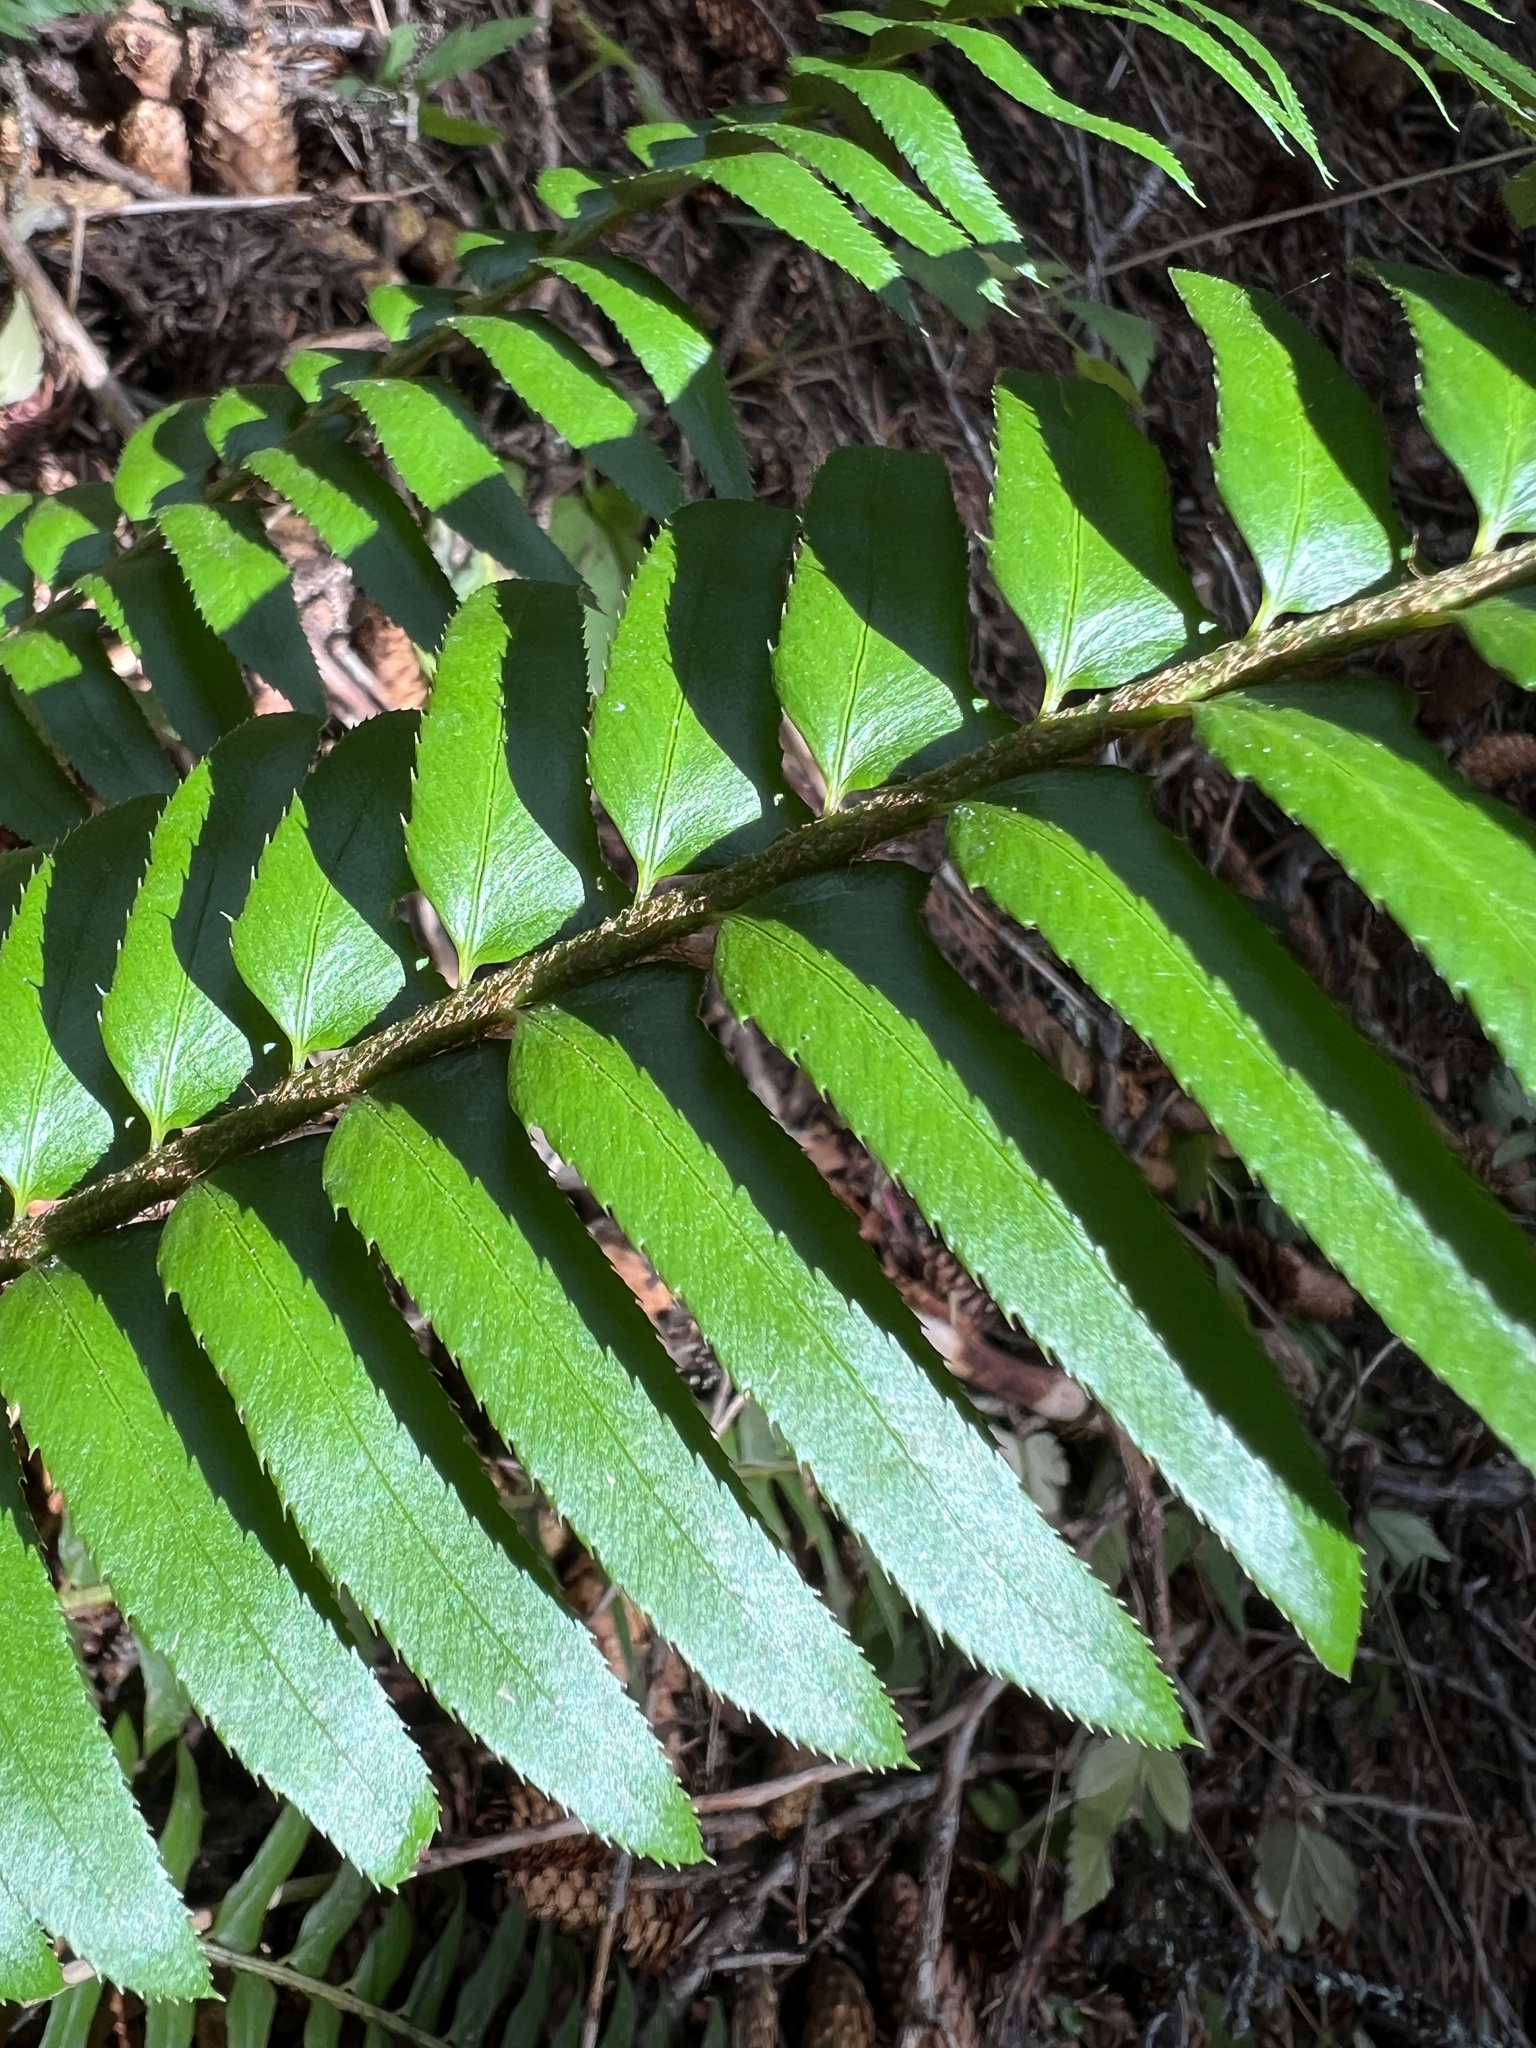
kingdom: Plantae
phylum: Tracheophyta
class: Polypodiopsida
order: Polypodiales
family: Dryopteridaceae
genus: Polystichum
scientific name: Polystichum munitum
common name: Western sword-fern
